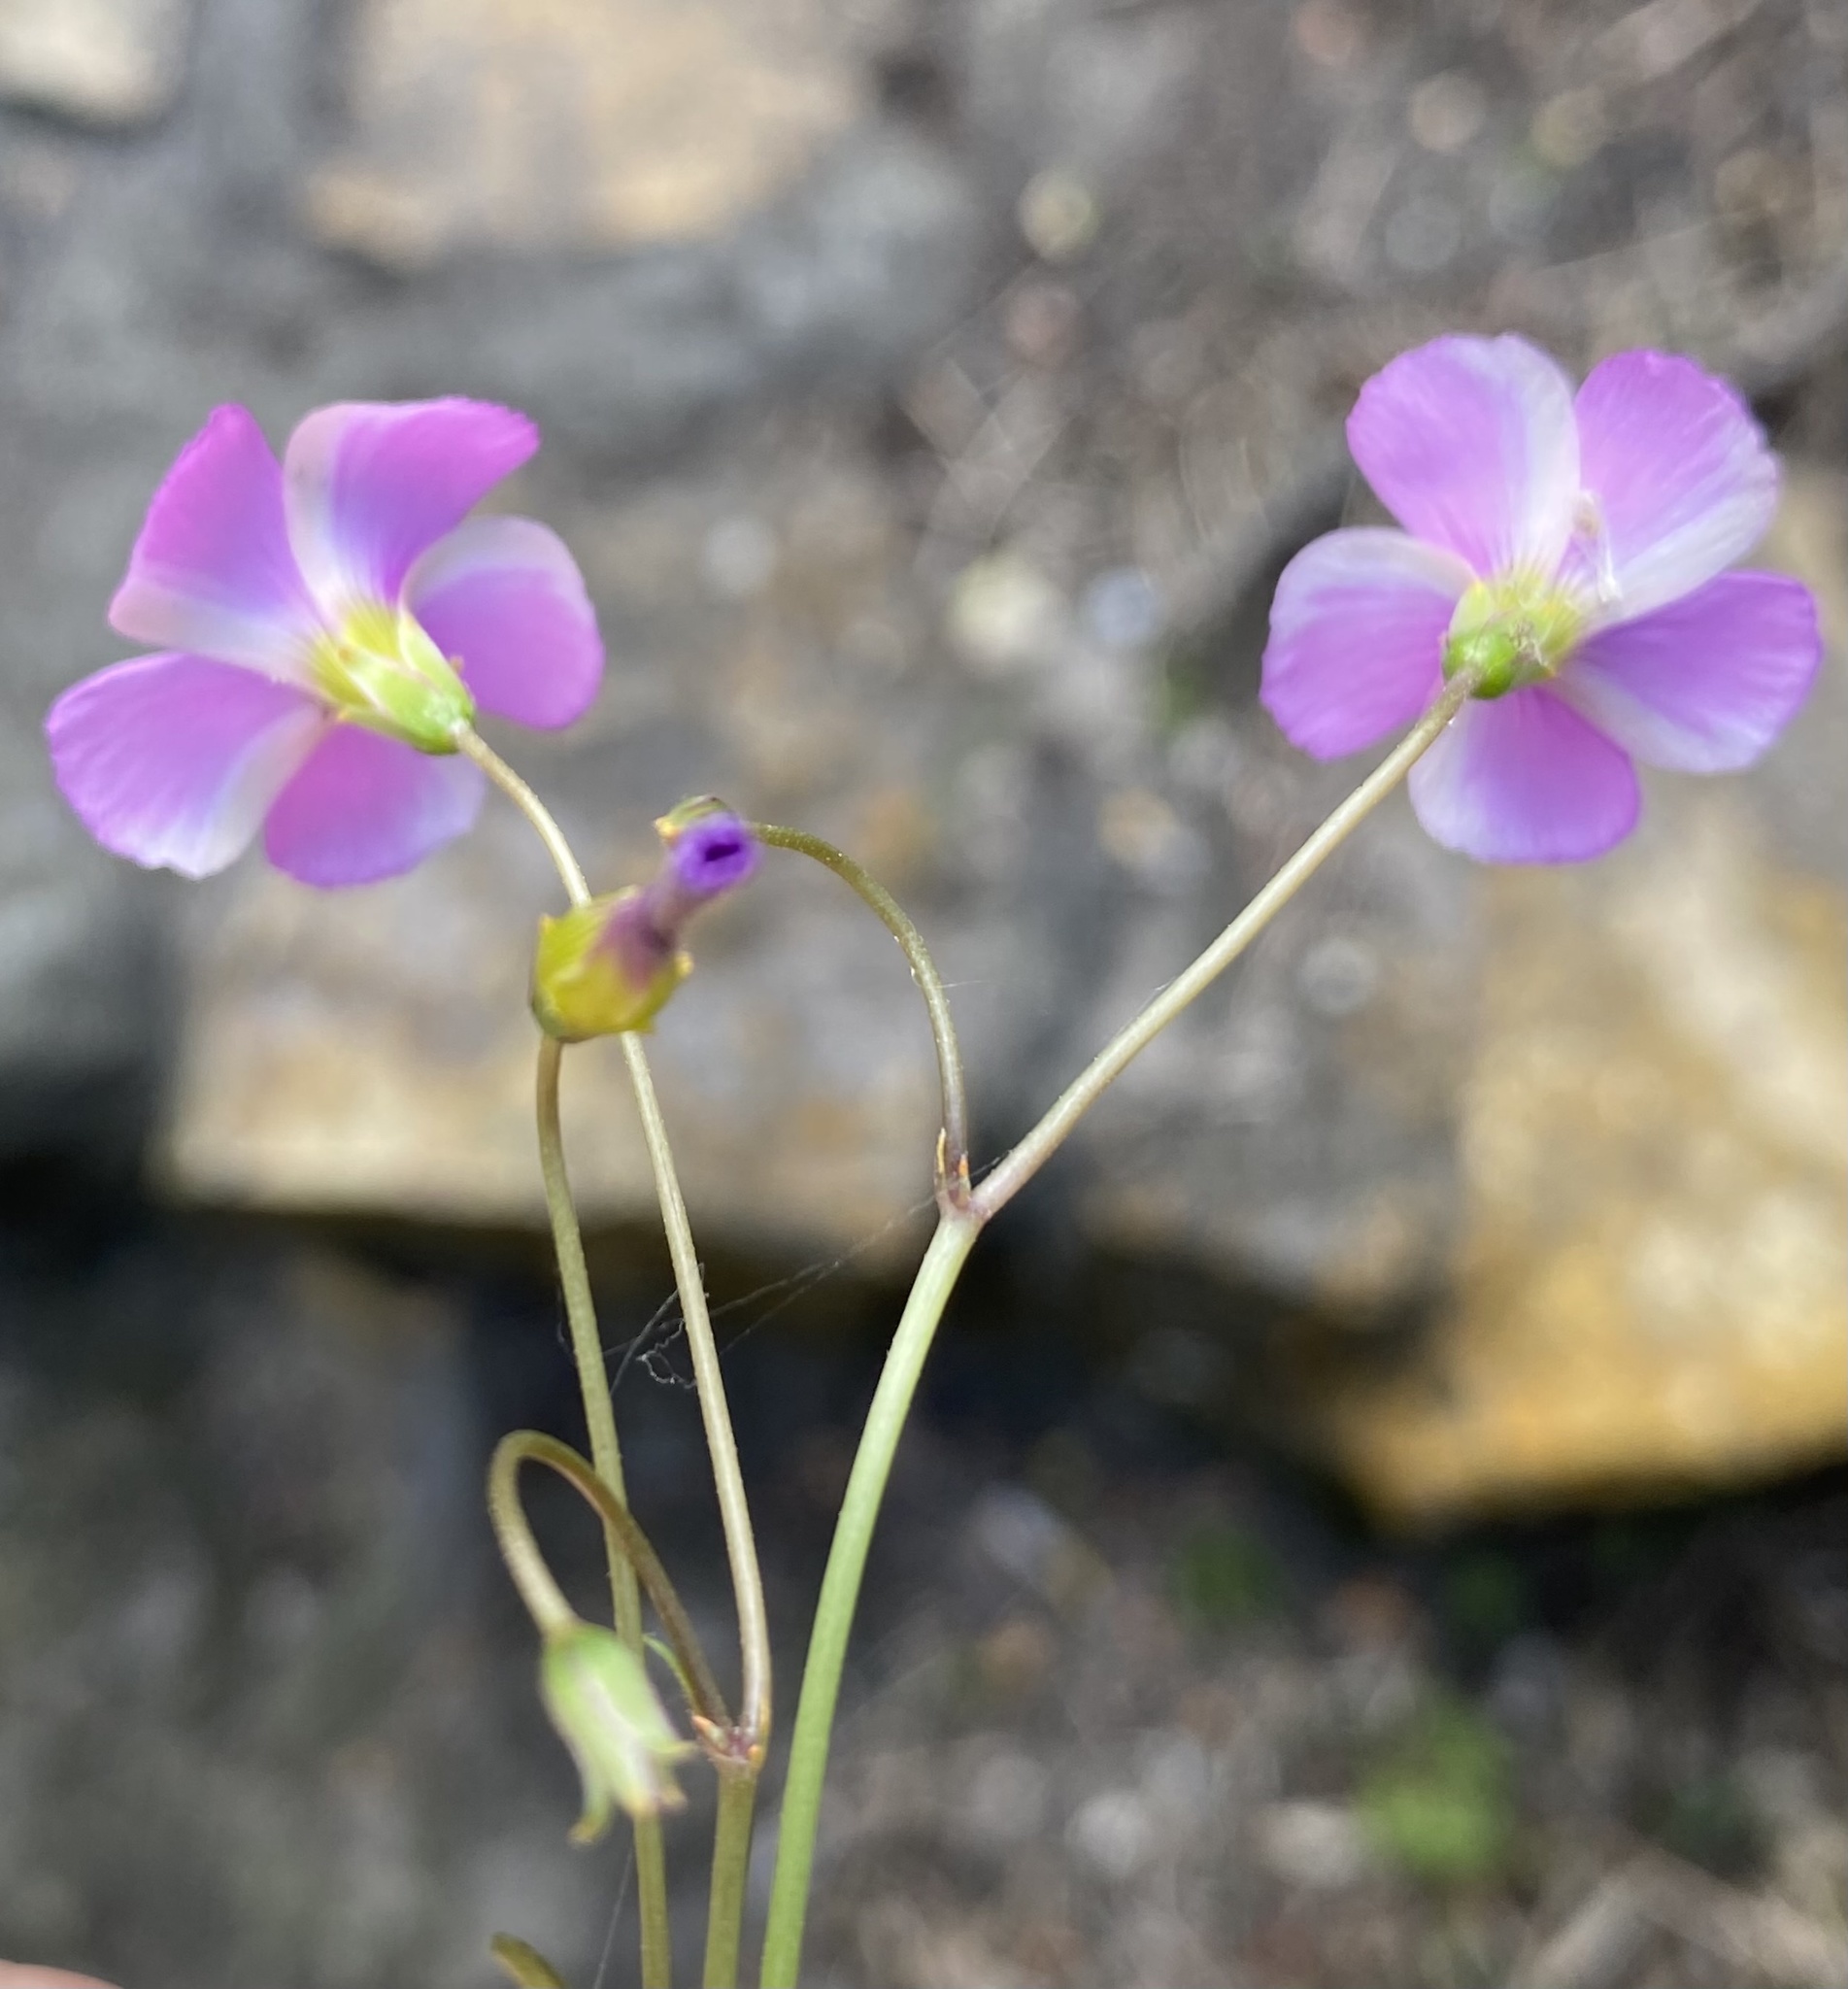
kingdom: Plantae
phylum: Tracheophyta
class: Magnoliopsida
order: Oxalidales
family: Oxalidaceae
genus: Oxalis
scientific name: Oxalis stellata
